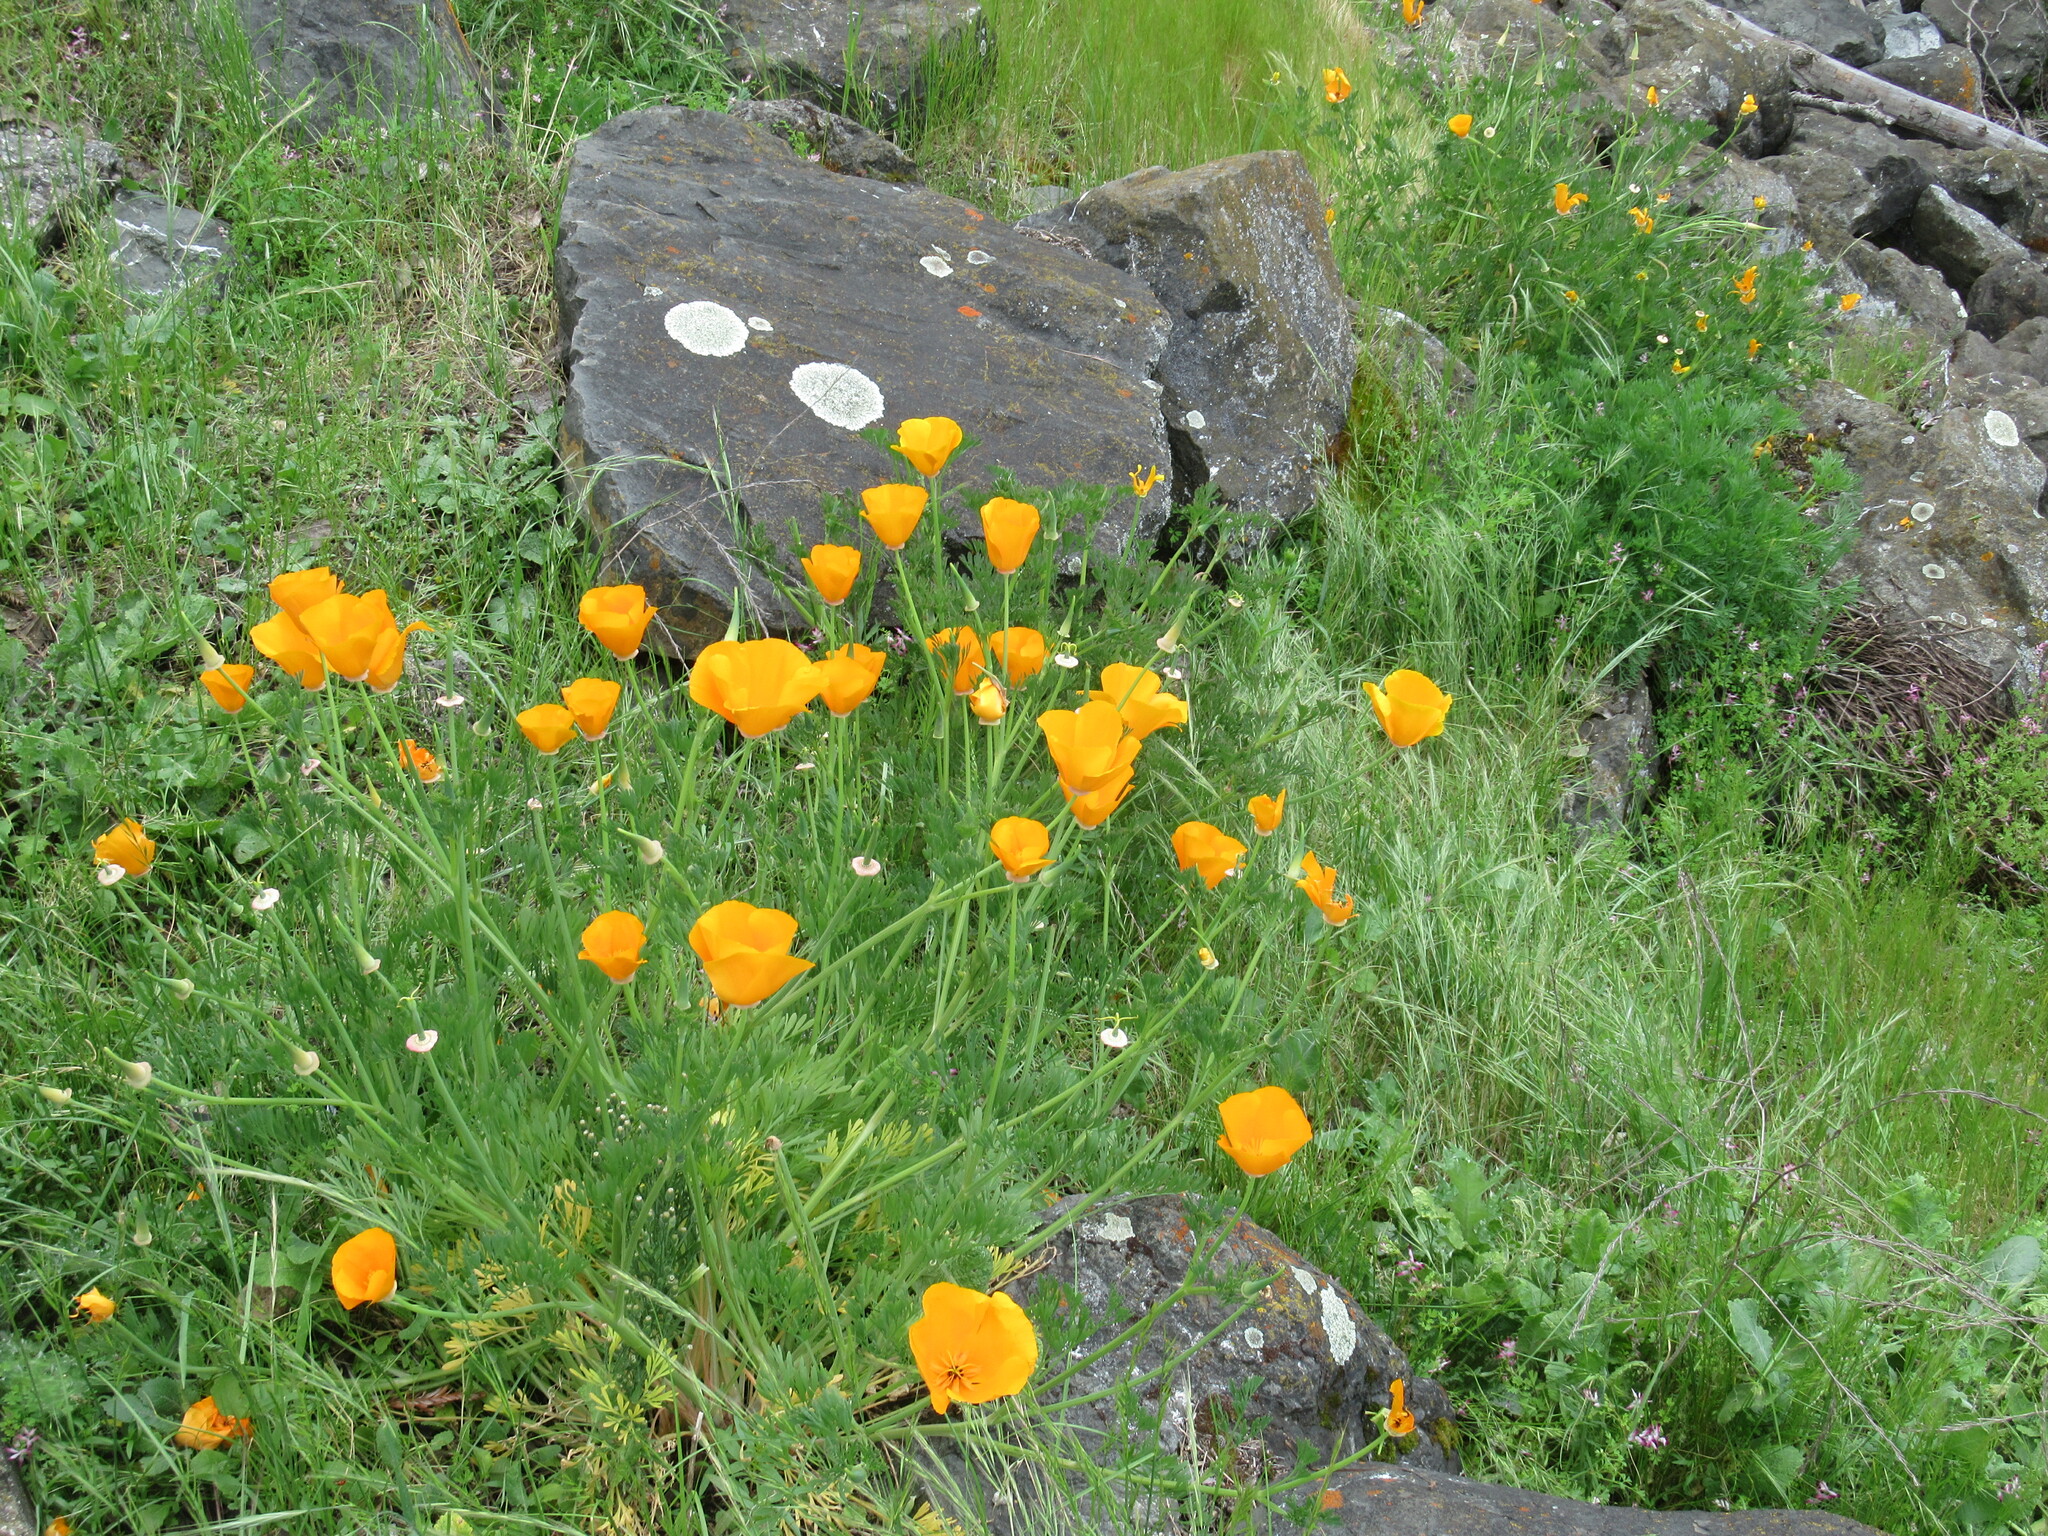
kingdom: Plantae
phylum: Tracheophyta
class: Magnoliopsida
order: Ranunculales
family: Papaveraceae
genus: Eschscholzia
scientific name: Eschscholzia californica
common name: California poppy
